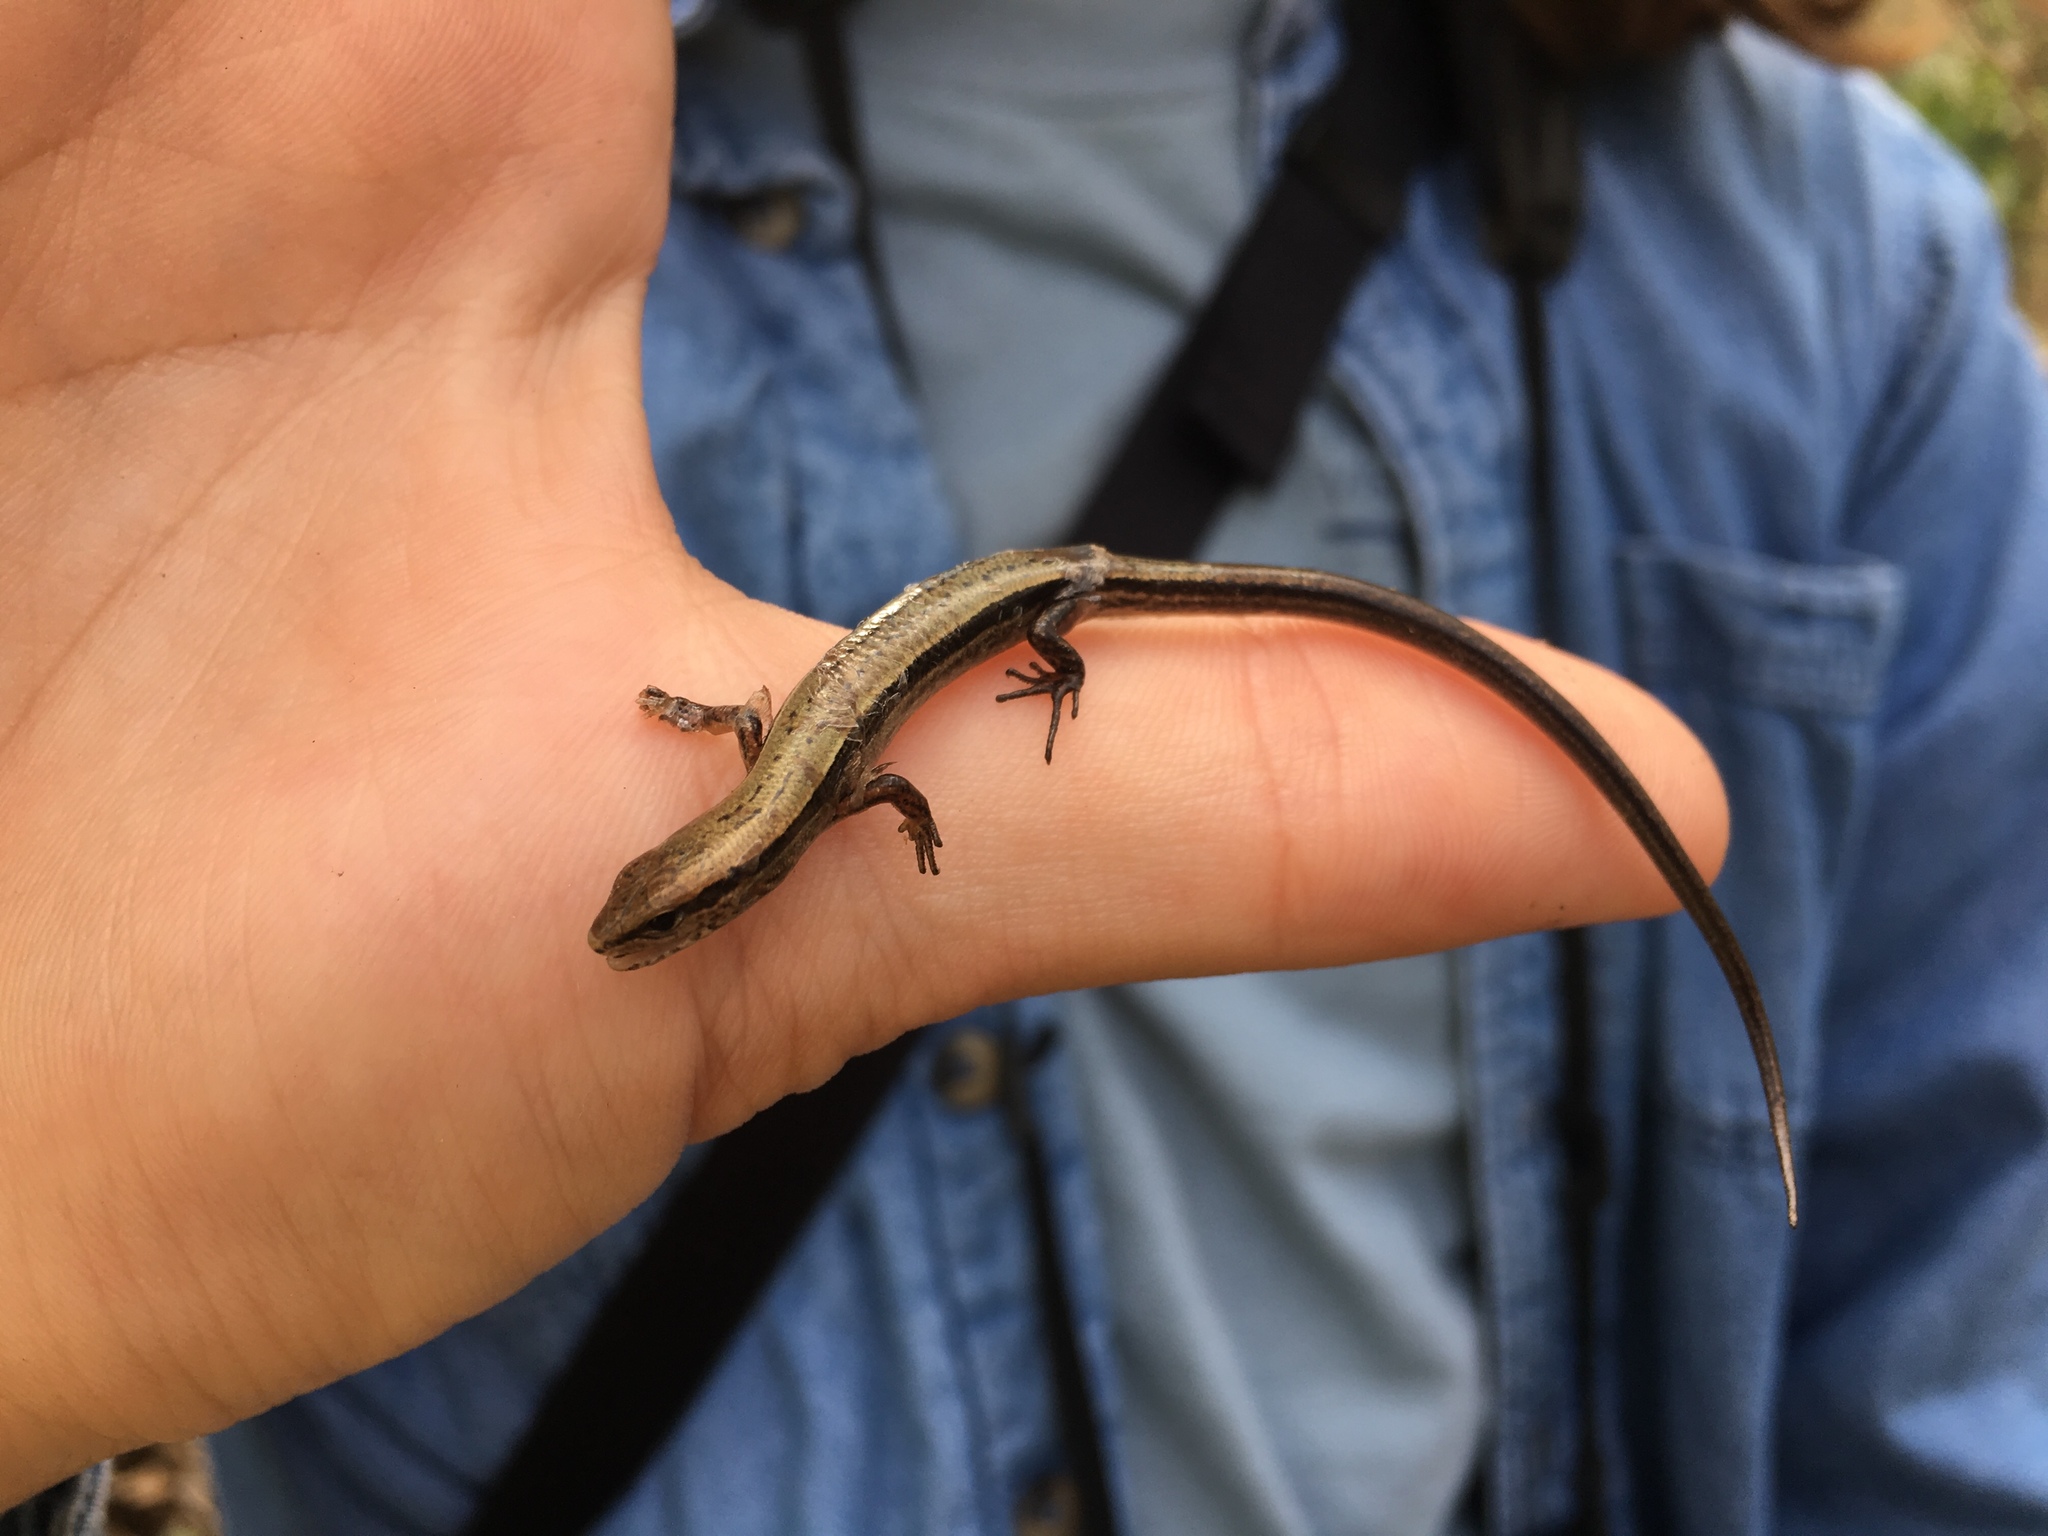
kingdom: Animalia
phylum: Chordata
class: Squamata
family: Scincidae
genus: Scincella
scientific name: Scincella lateralis
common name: Ground skink
